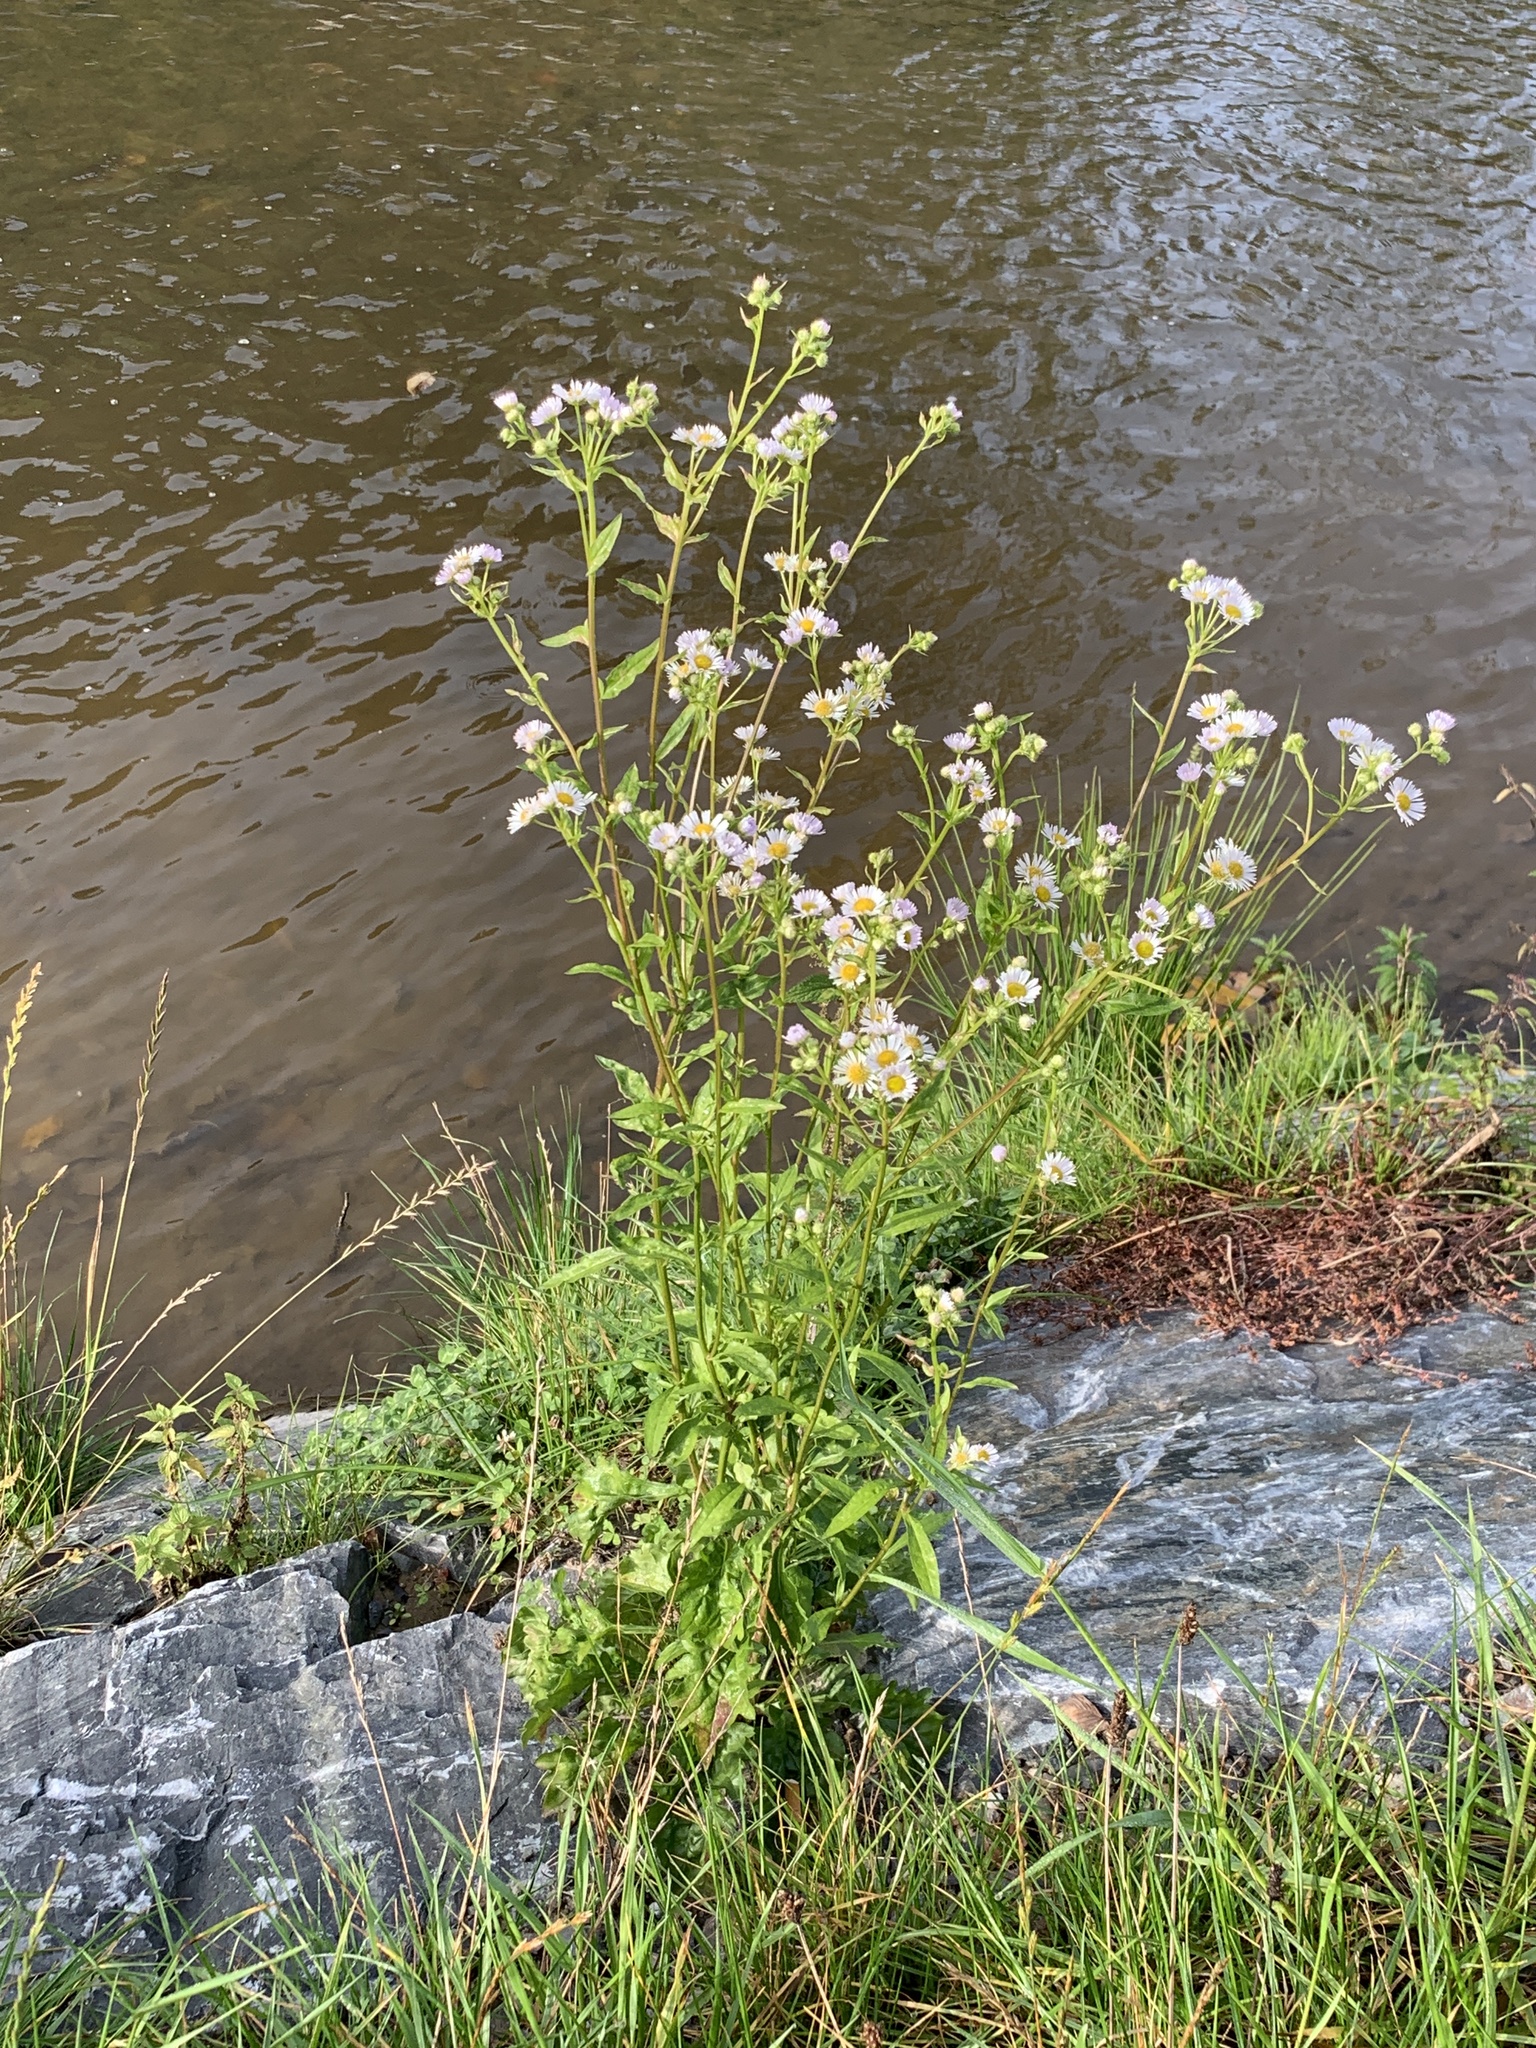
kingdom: Plantae
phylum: Tracheophyta
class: Magnoliopsida
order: Asterales
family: Asteraceae
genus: Erigeron
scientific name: Erigeron annuus
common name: Tall fleabane
